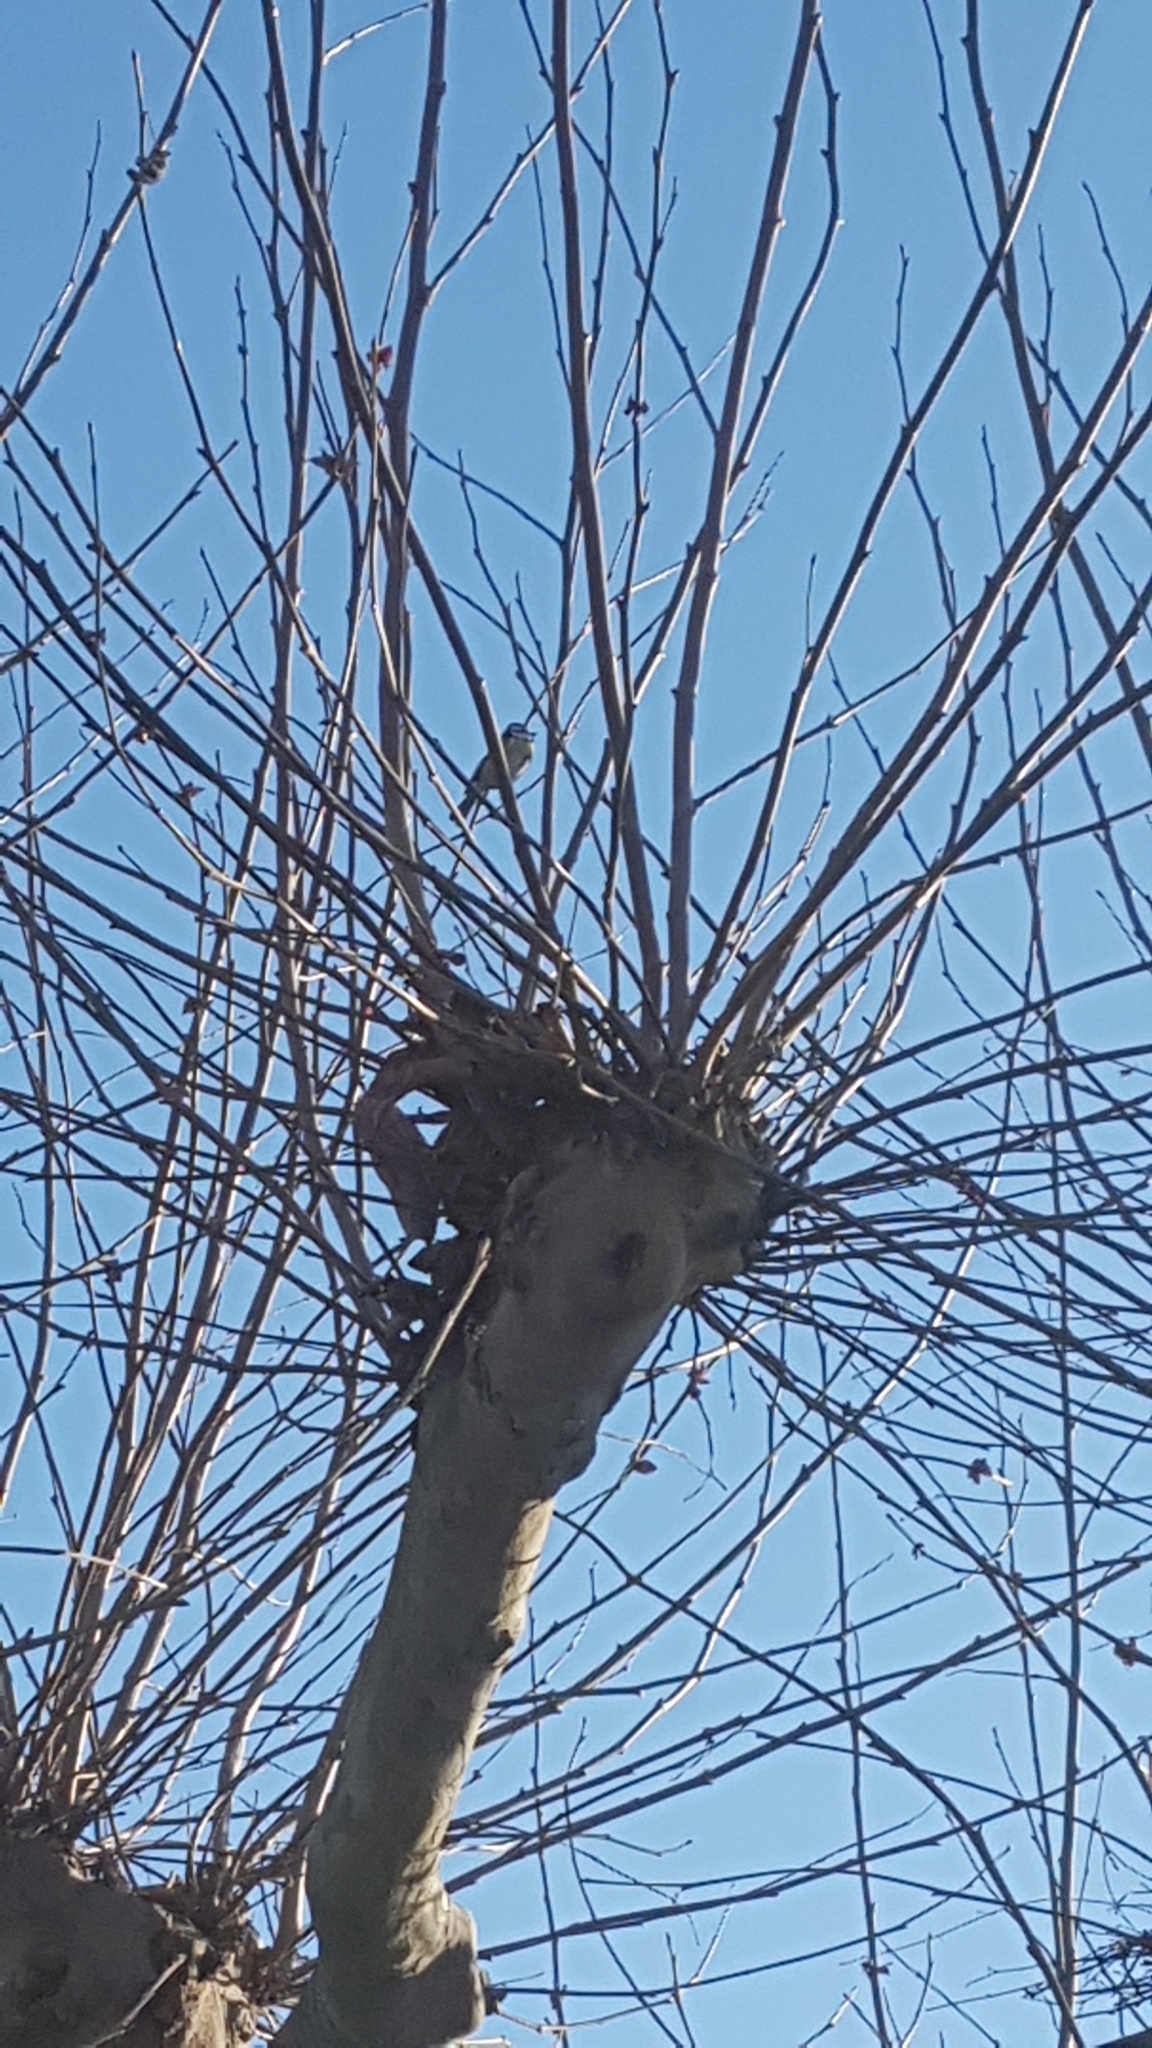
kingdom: Animalia
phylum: Chordata
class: Aves
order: Passeriformes
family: Paridae
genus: Cyanistes
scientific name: Cyanistes caeruleus
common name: Eurasian blue tit
